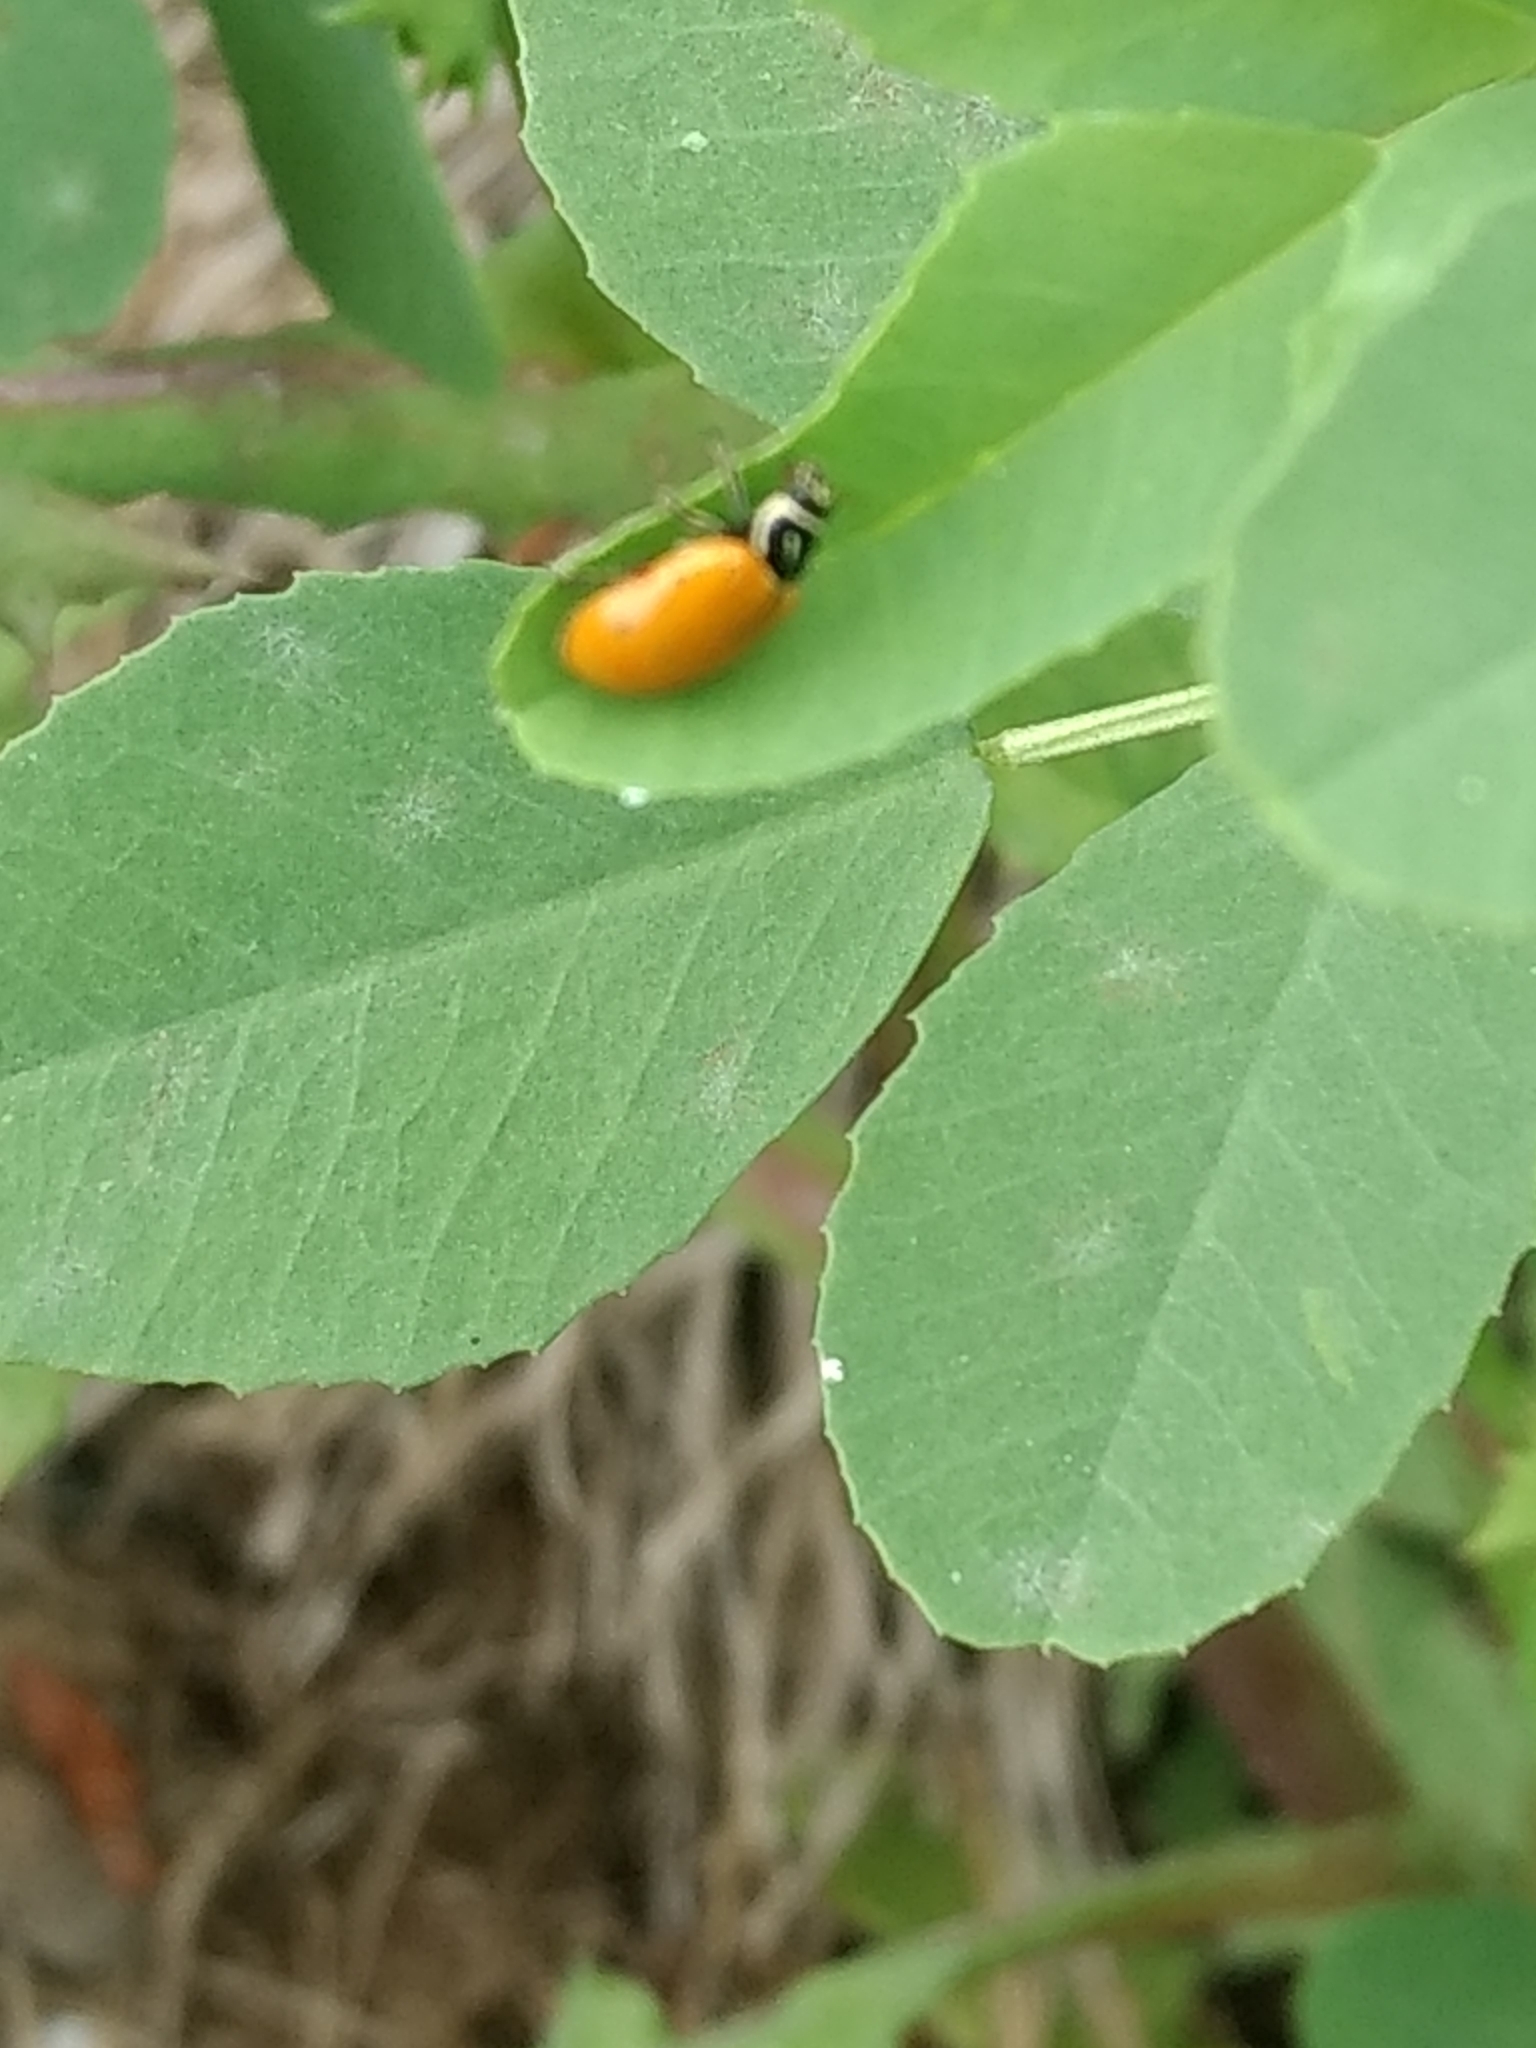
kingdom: Animalia
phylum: Arthropoda
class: Insecta
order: Coleoptera
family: Coccinellidae
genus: Hippodamia
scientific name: Hippodamia convergens
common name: Convergent lady beetle
